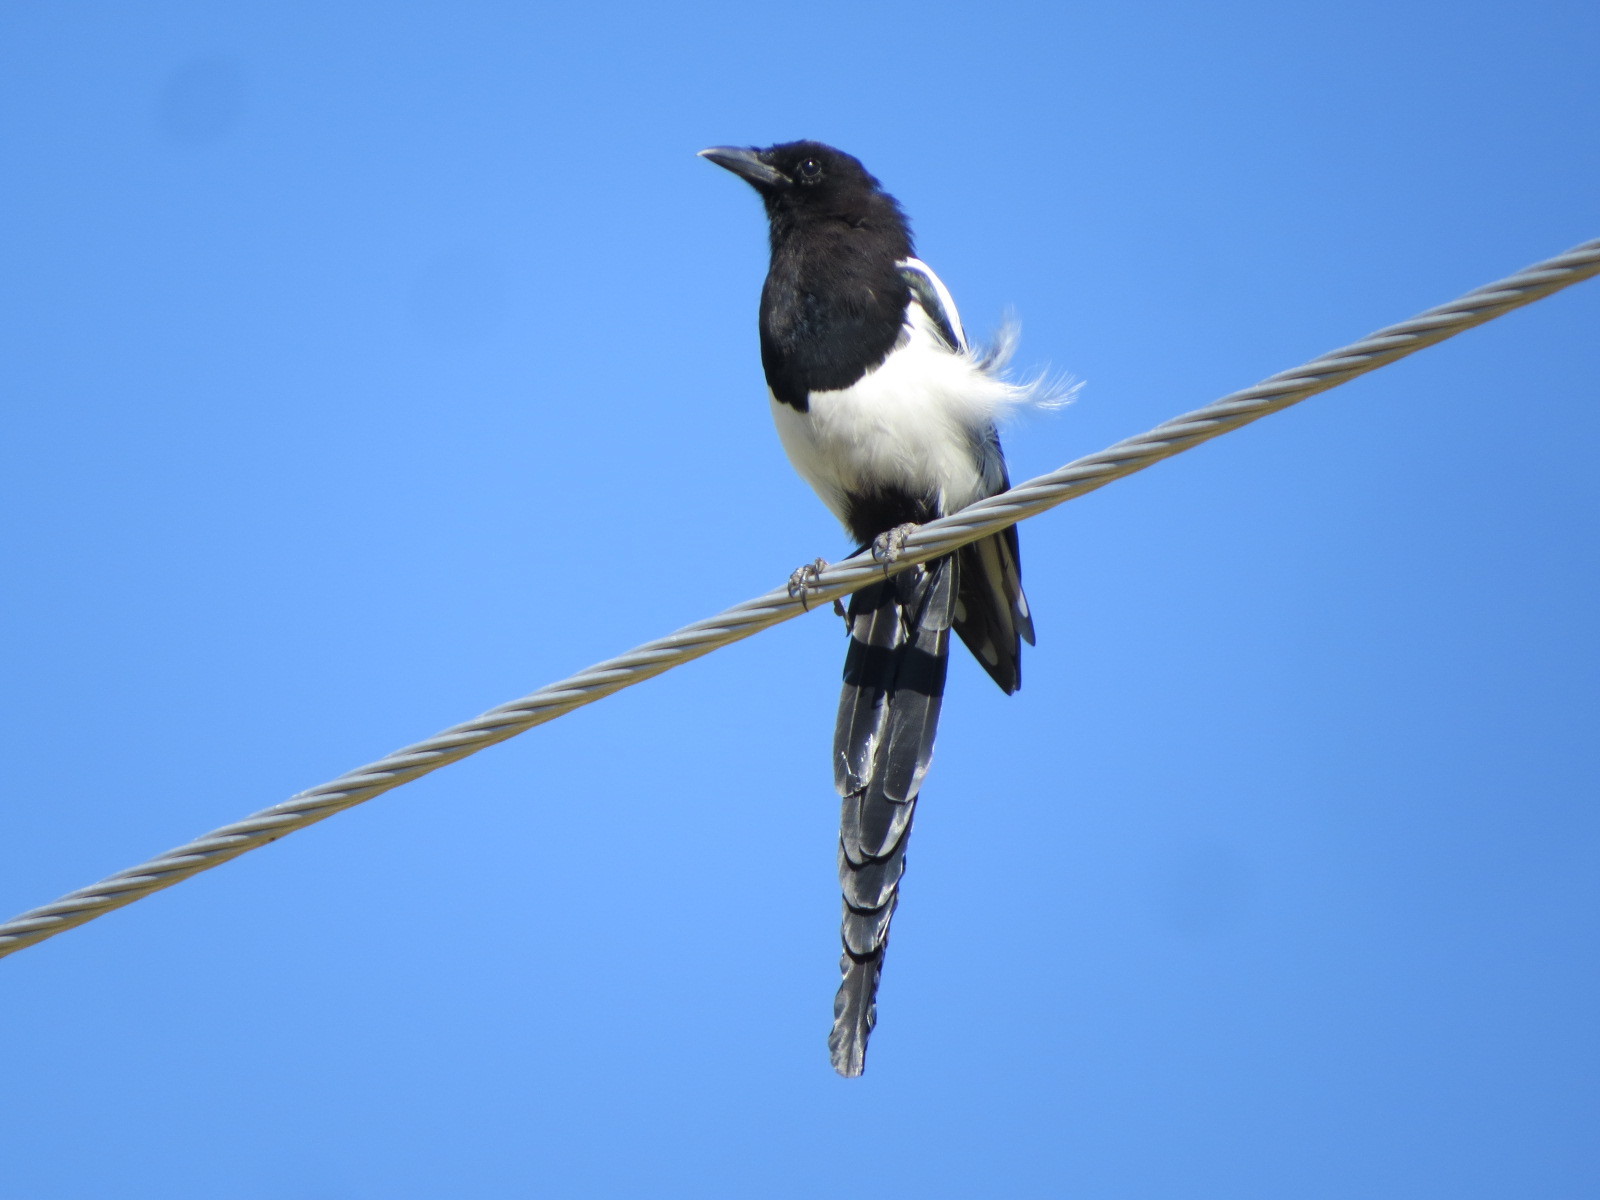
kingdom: Animalia
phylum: Chordata
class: Aves
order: Passeriformes
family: Corvidae
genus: Pica
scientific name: Pica hudsonia
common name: Black-billed magpie
